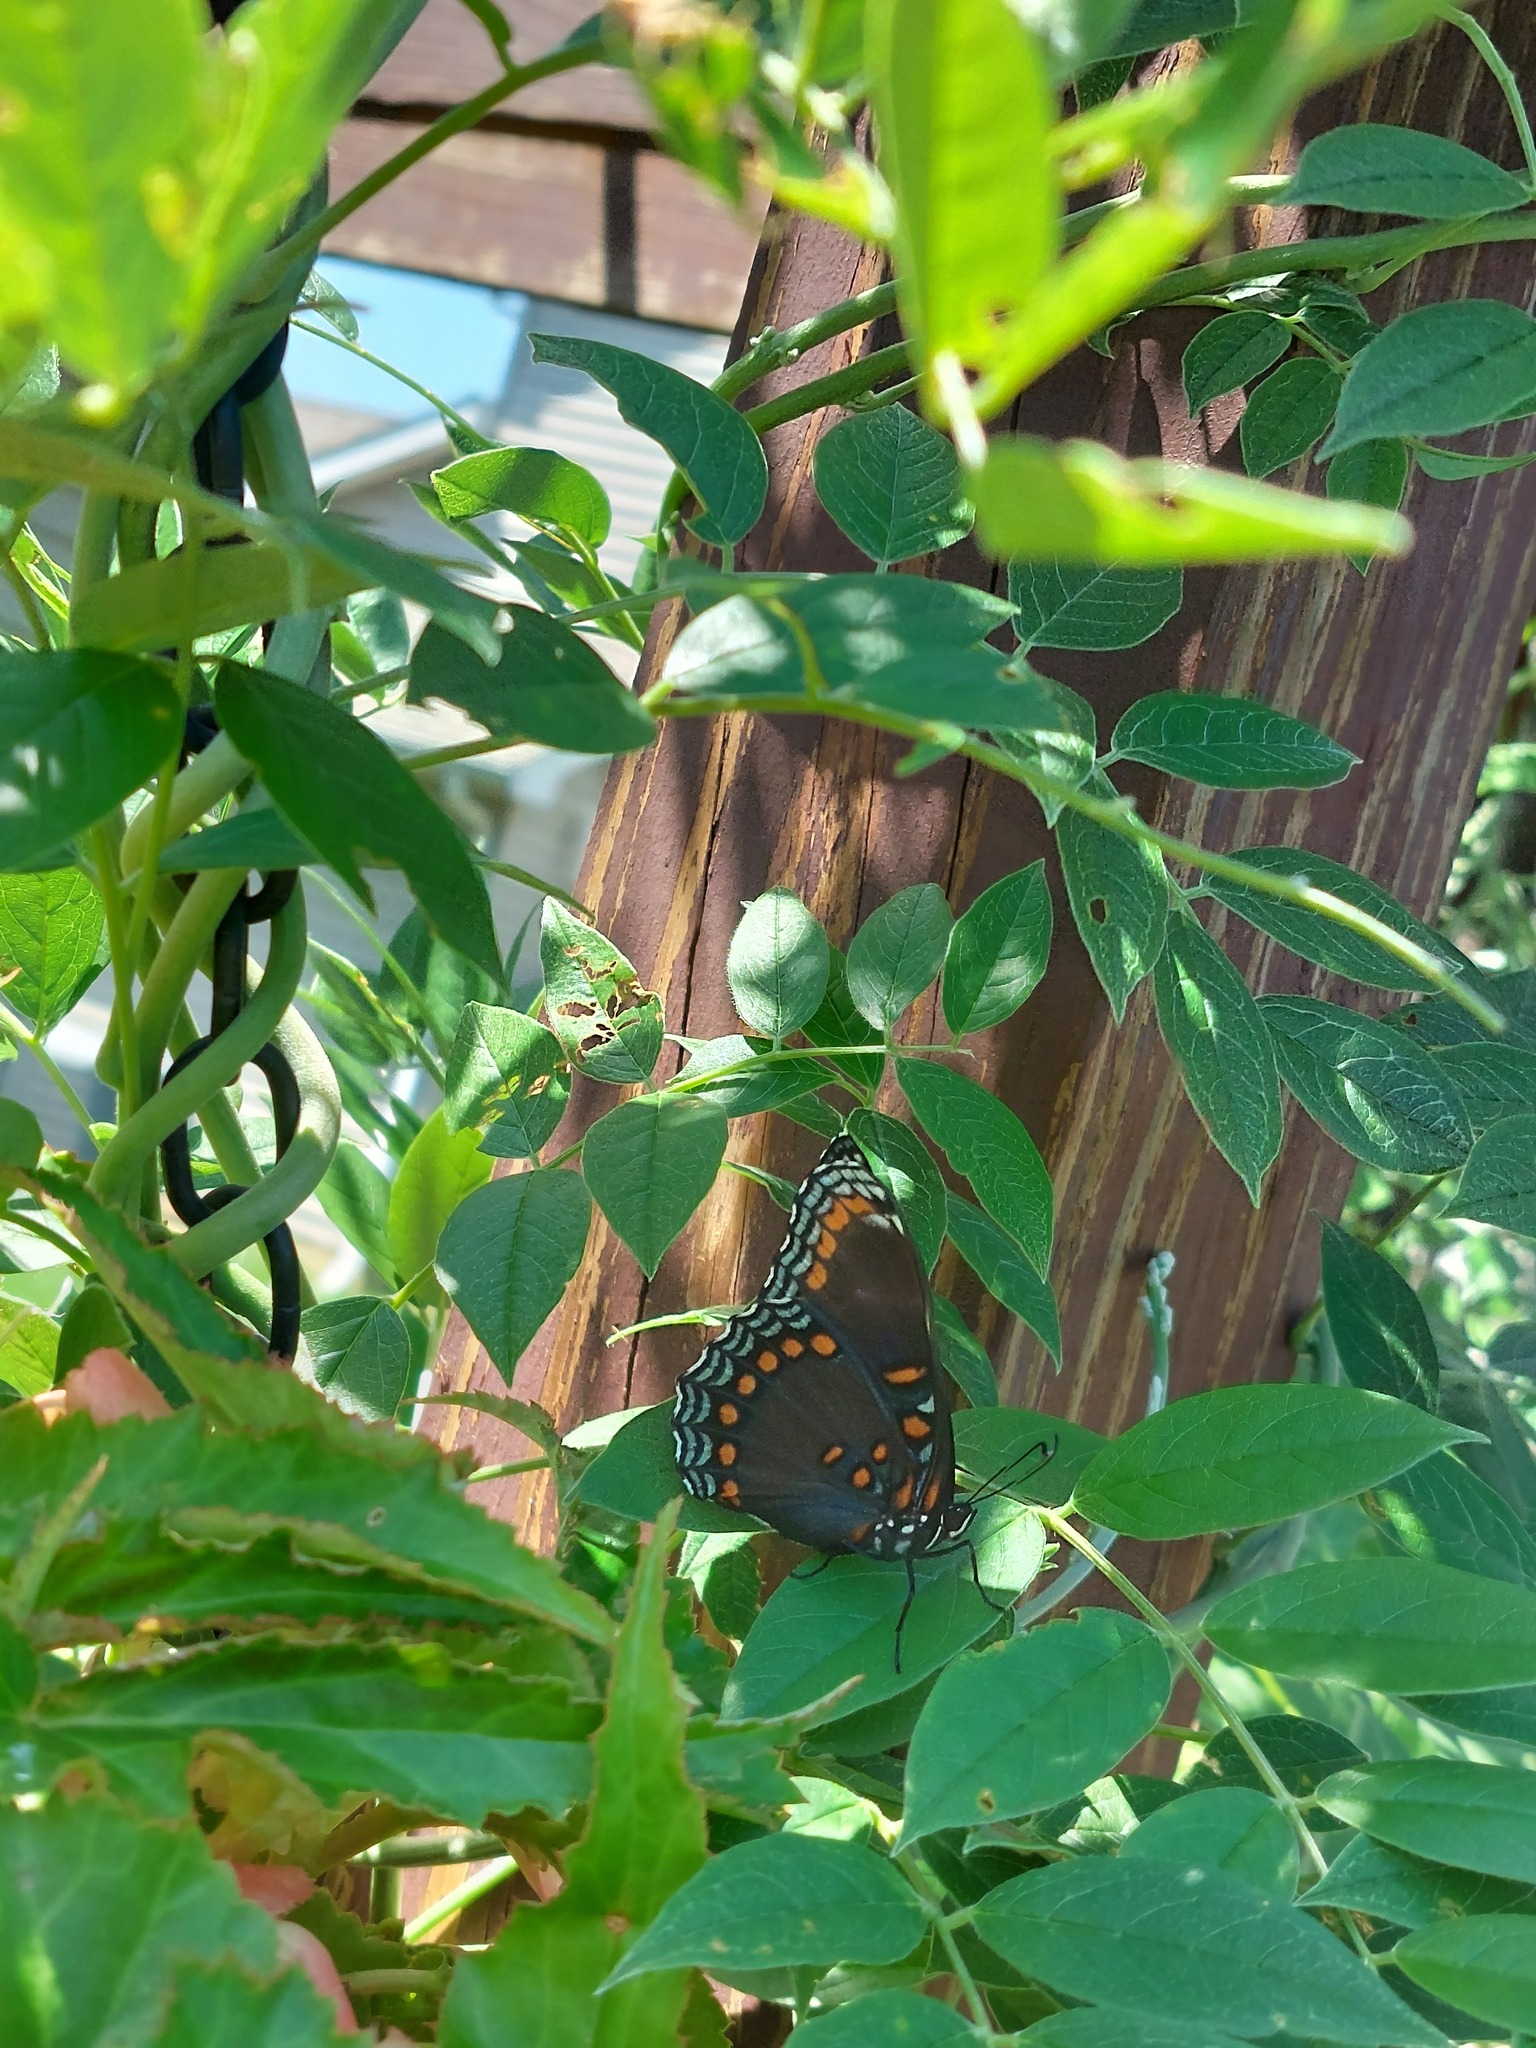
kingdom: Animalia
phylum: Arthropoda
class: Insecta
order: Lepidoptera
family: Nymphalidae
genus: Limenitis
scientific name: Limenitis arthemis
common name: Red-spotted admiral
